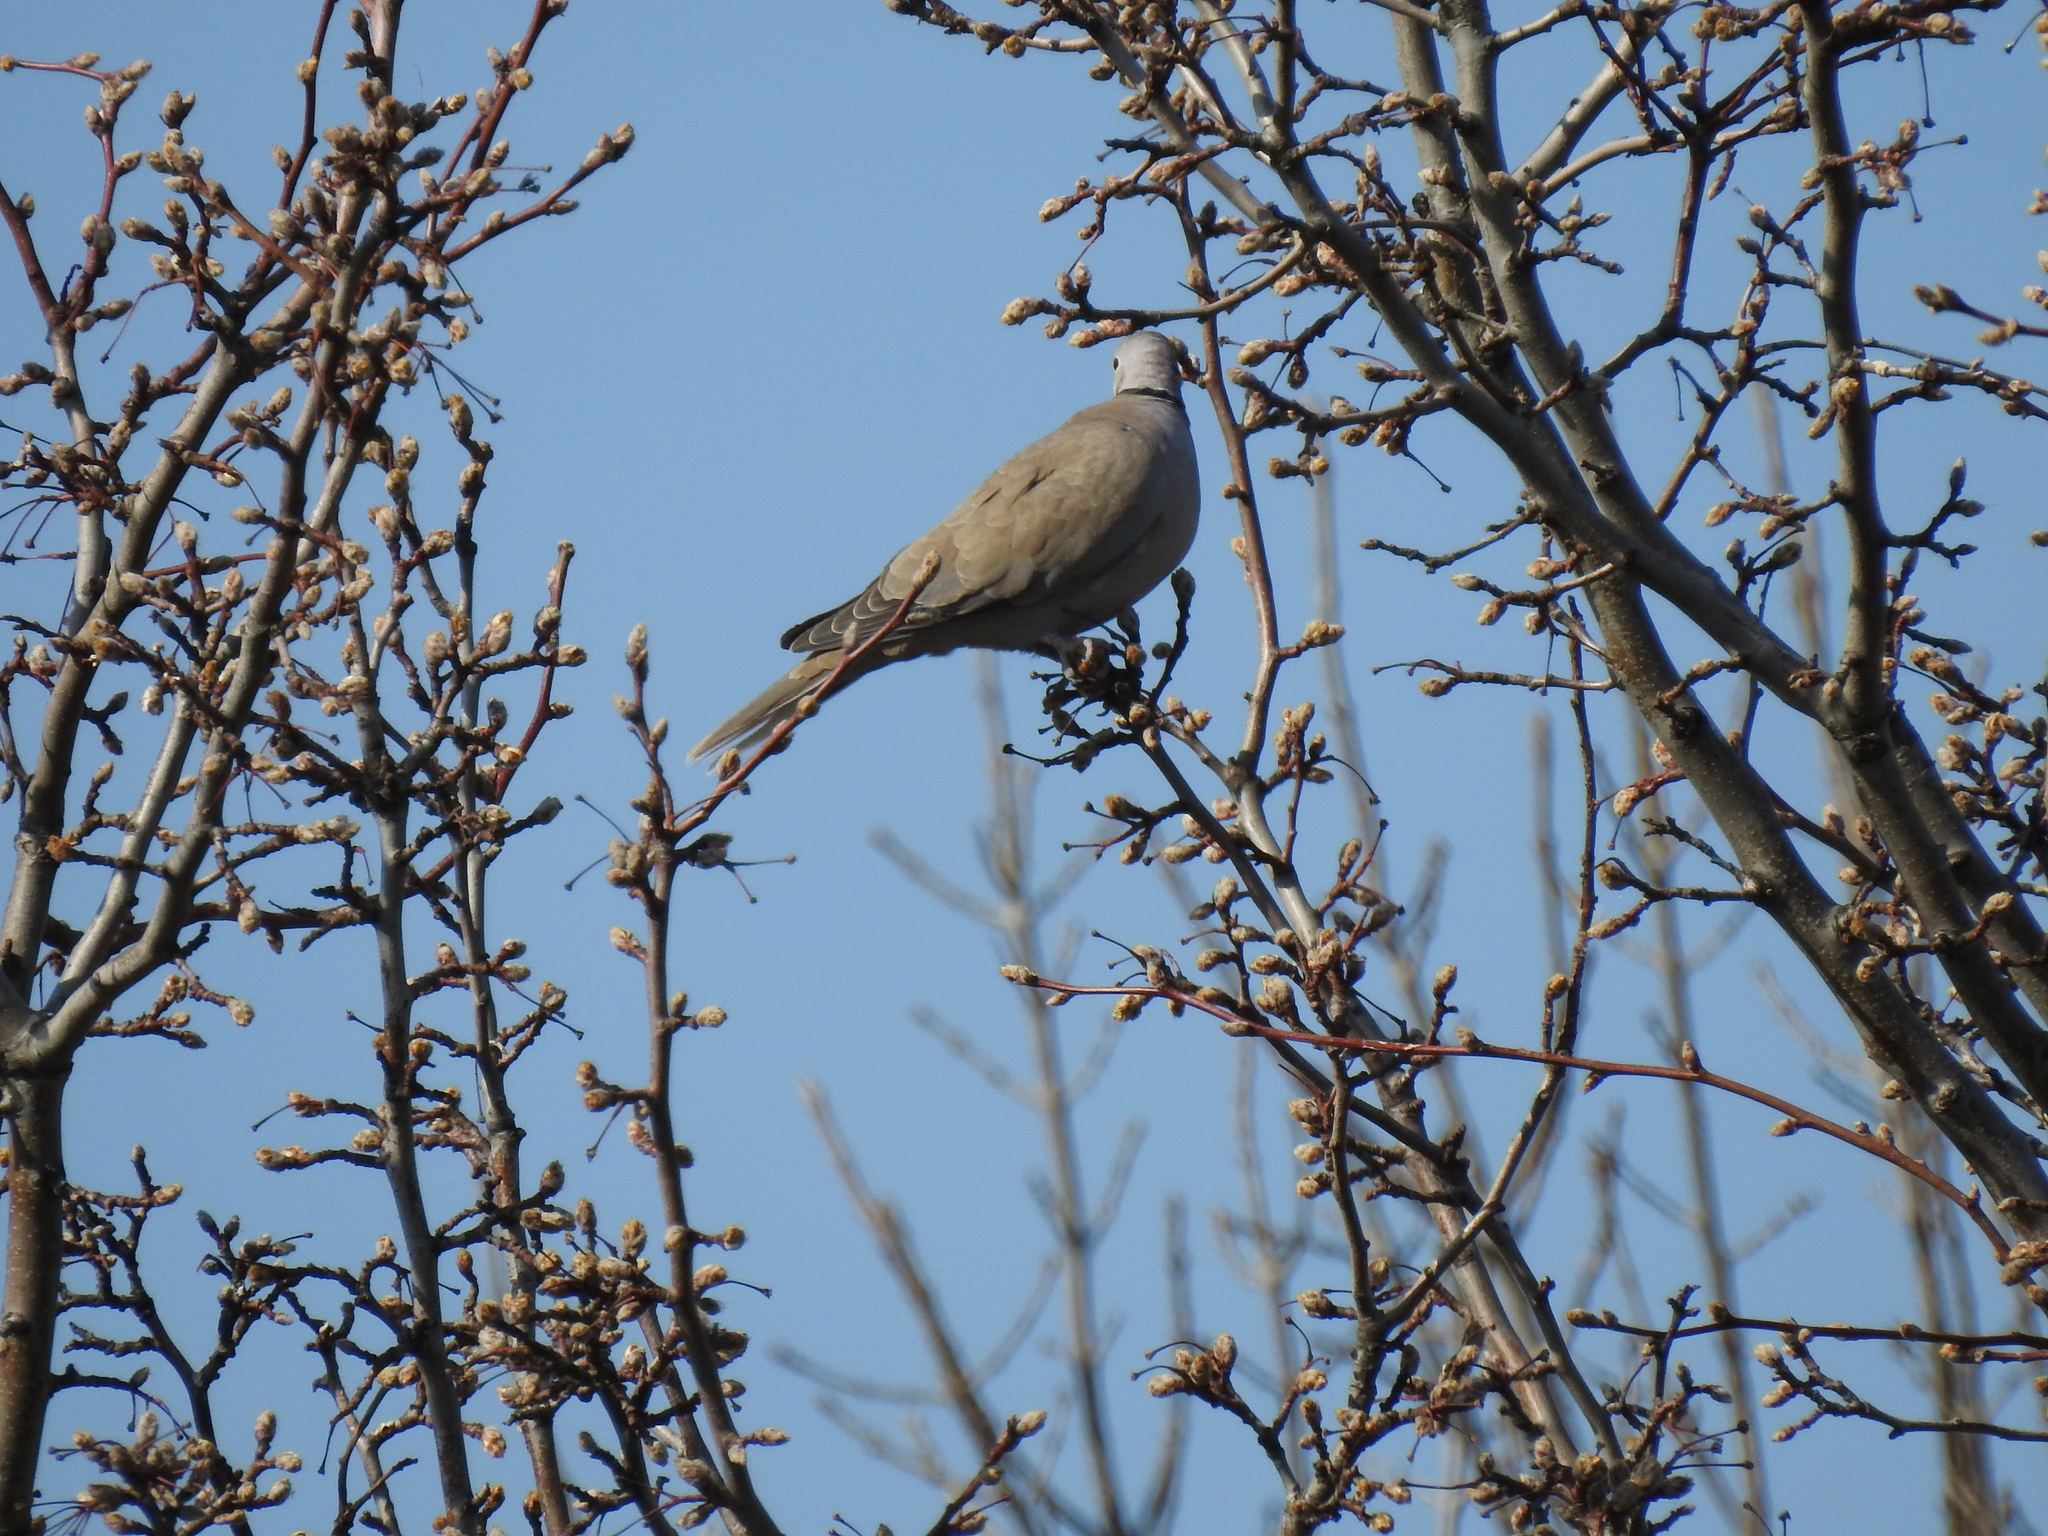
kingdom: Animalia
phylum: Chordata
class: Aves
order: Columbiformes
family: Columbidae
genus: Streptopelia
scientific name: Streptopelia decaocto
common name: Eurasian collared dove
